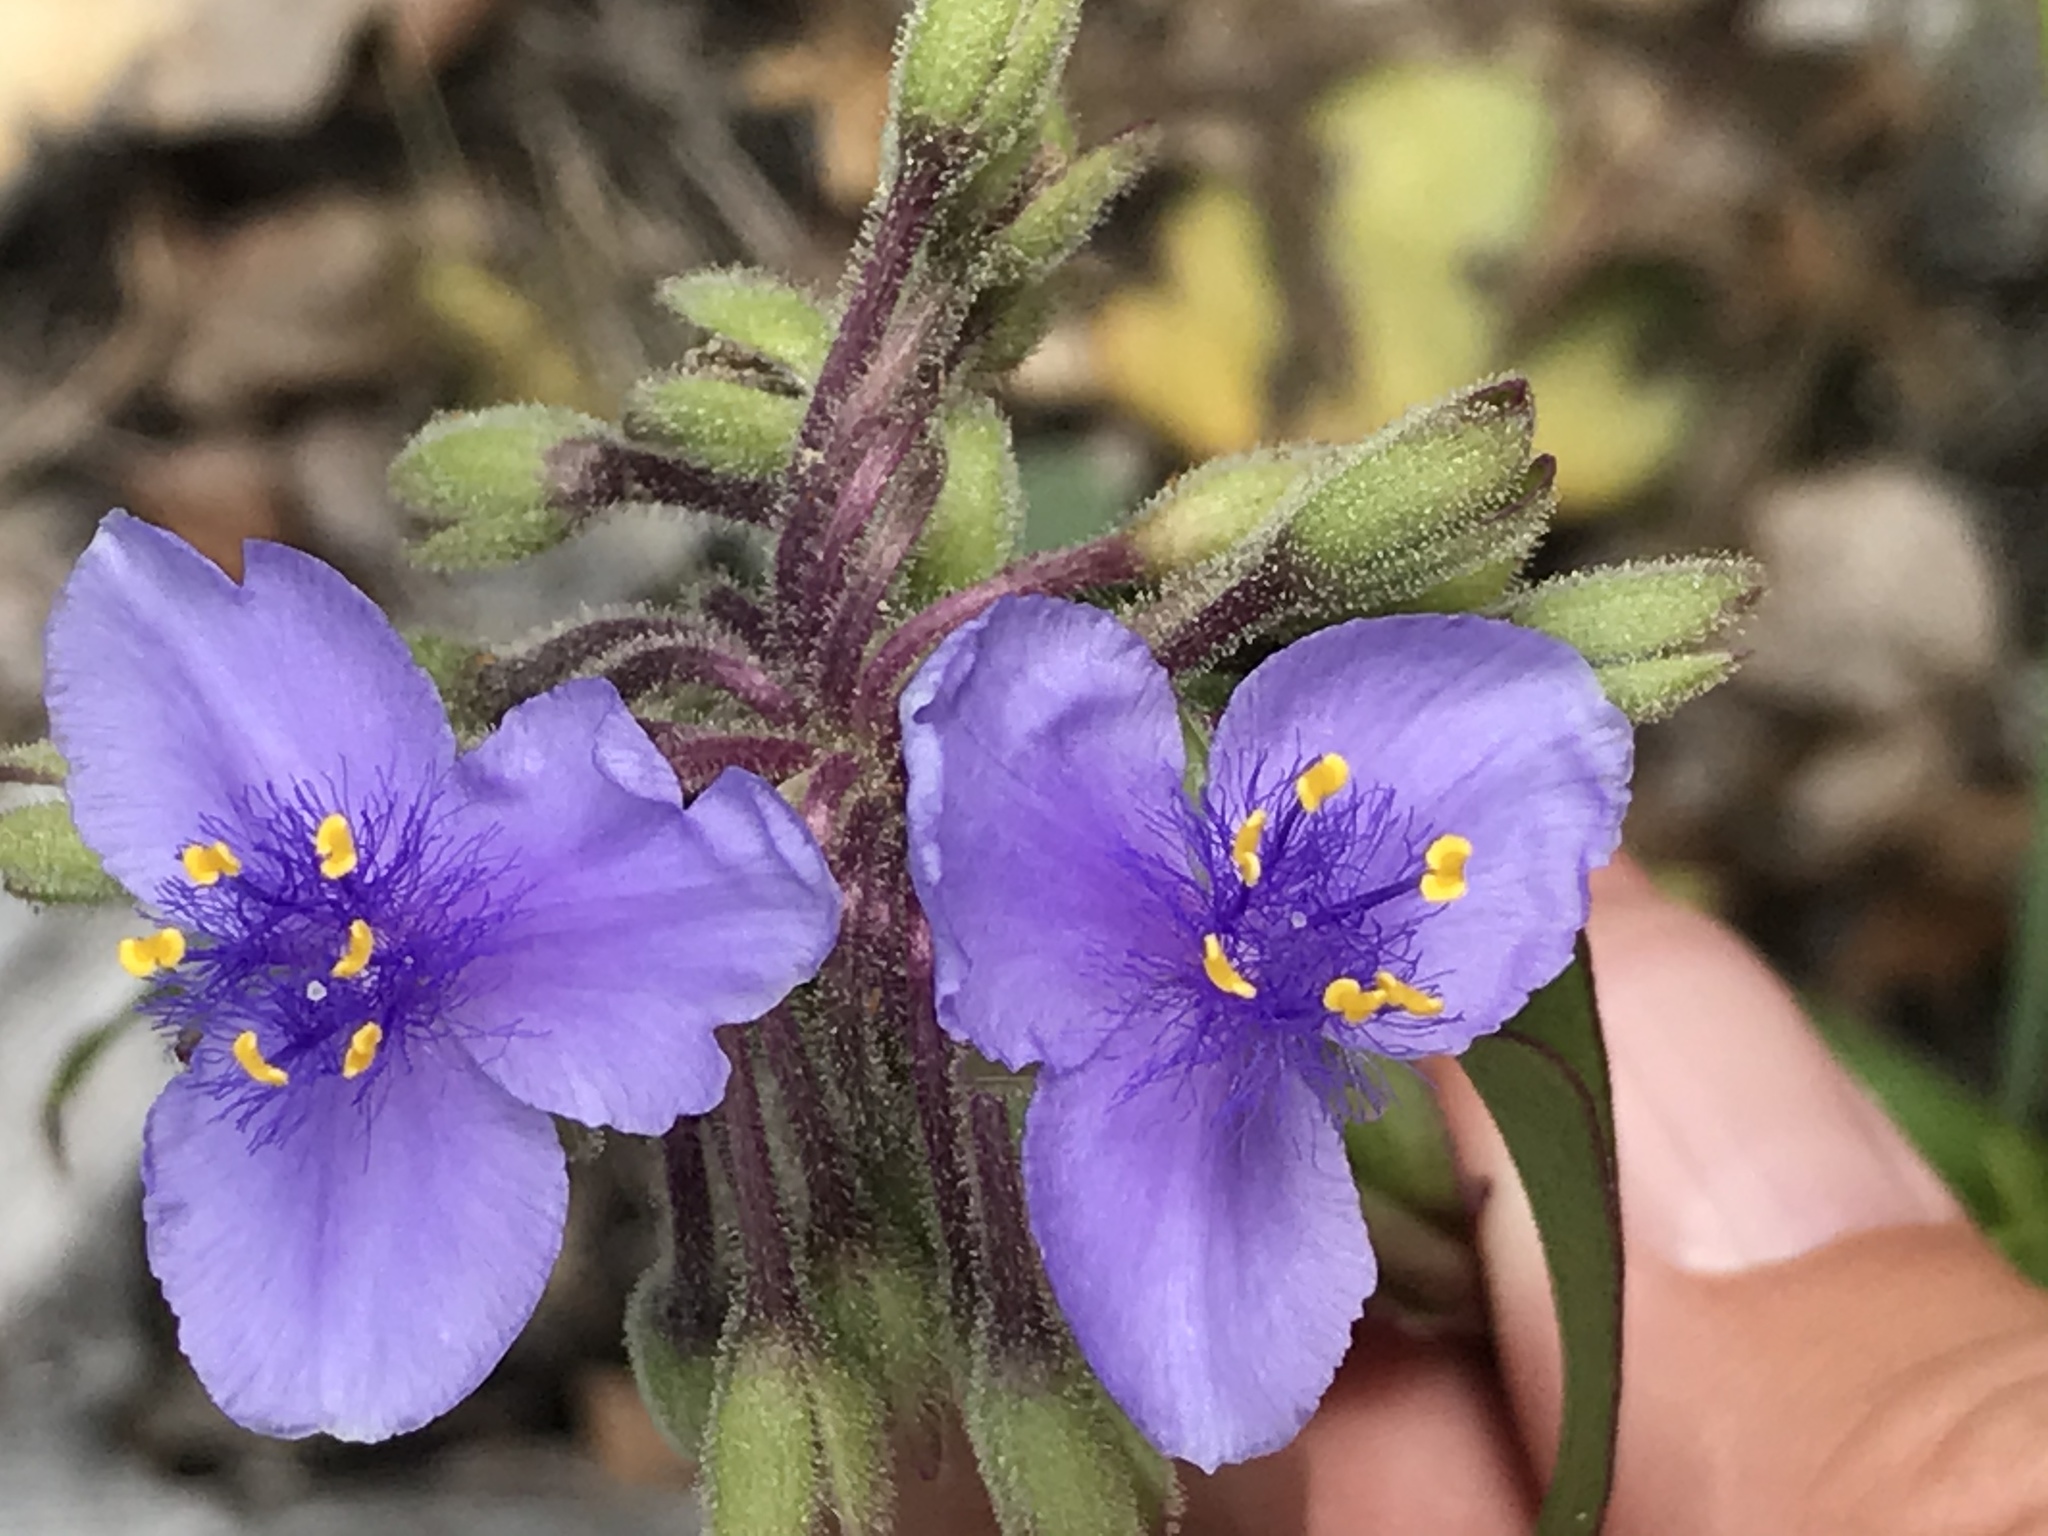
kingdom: Plantae
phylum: Tracheophyta
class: Liliopsida
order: Commelinales
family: Commelinaceae
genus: Tradescantia
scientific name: Tradescantia edwardsiana
